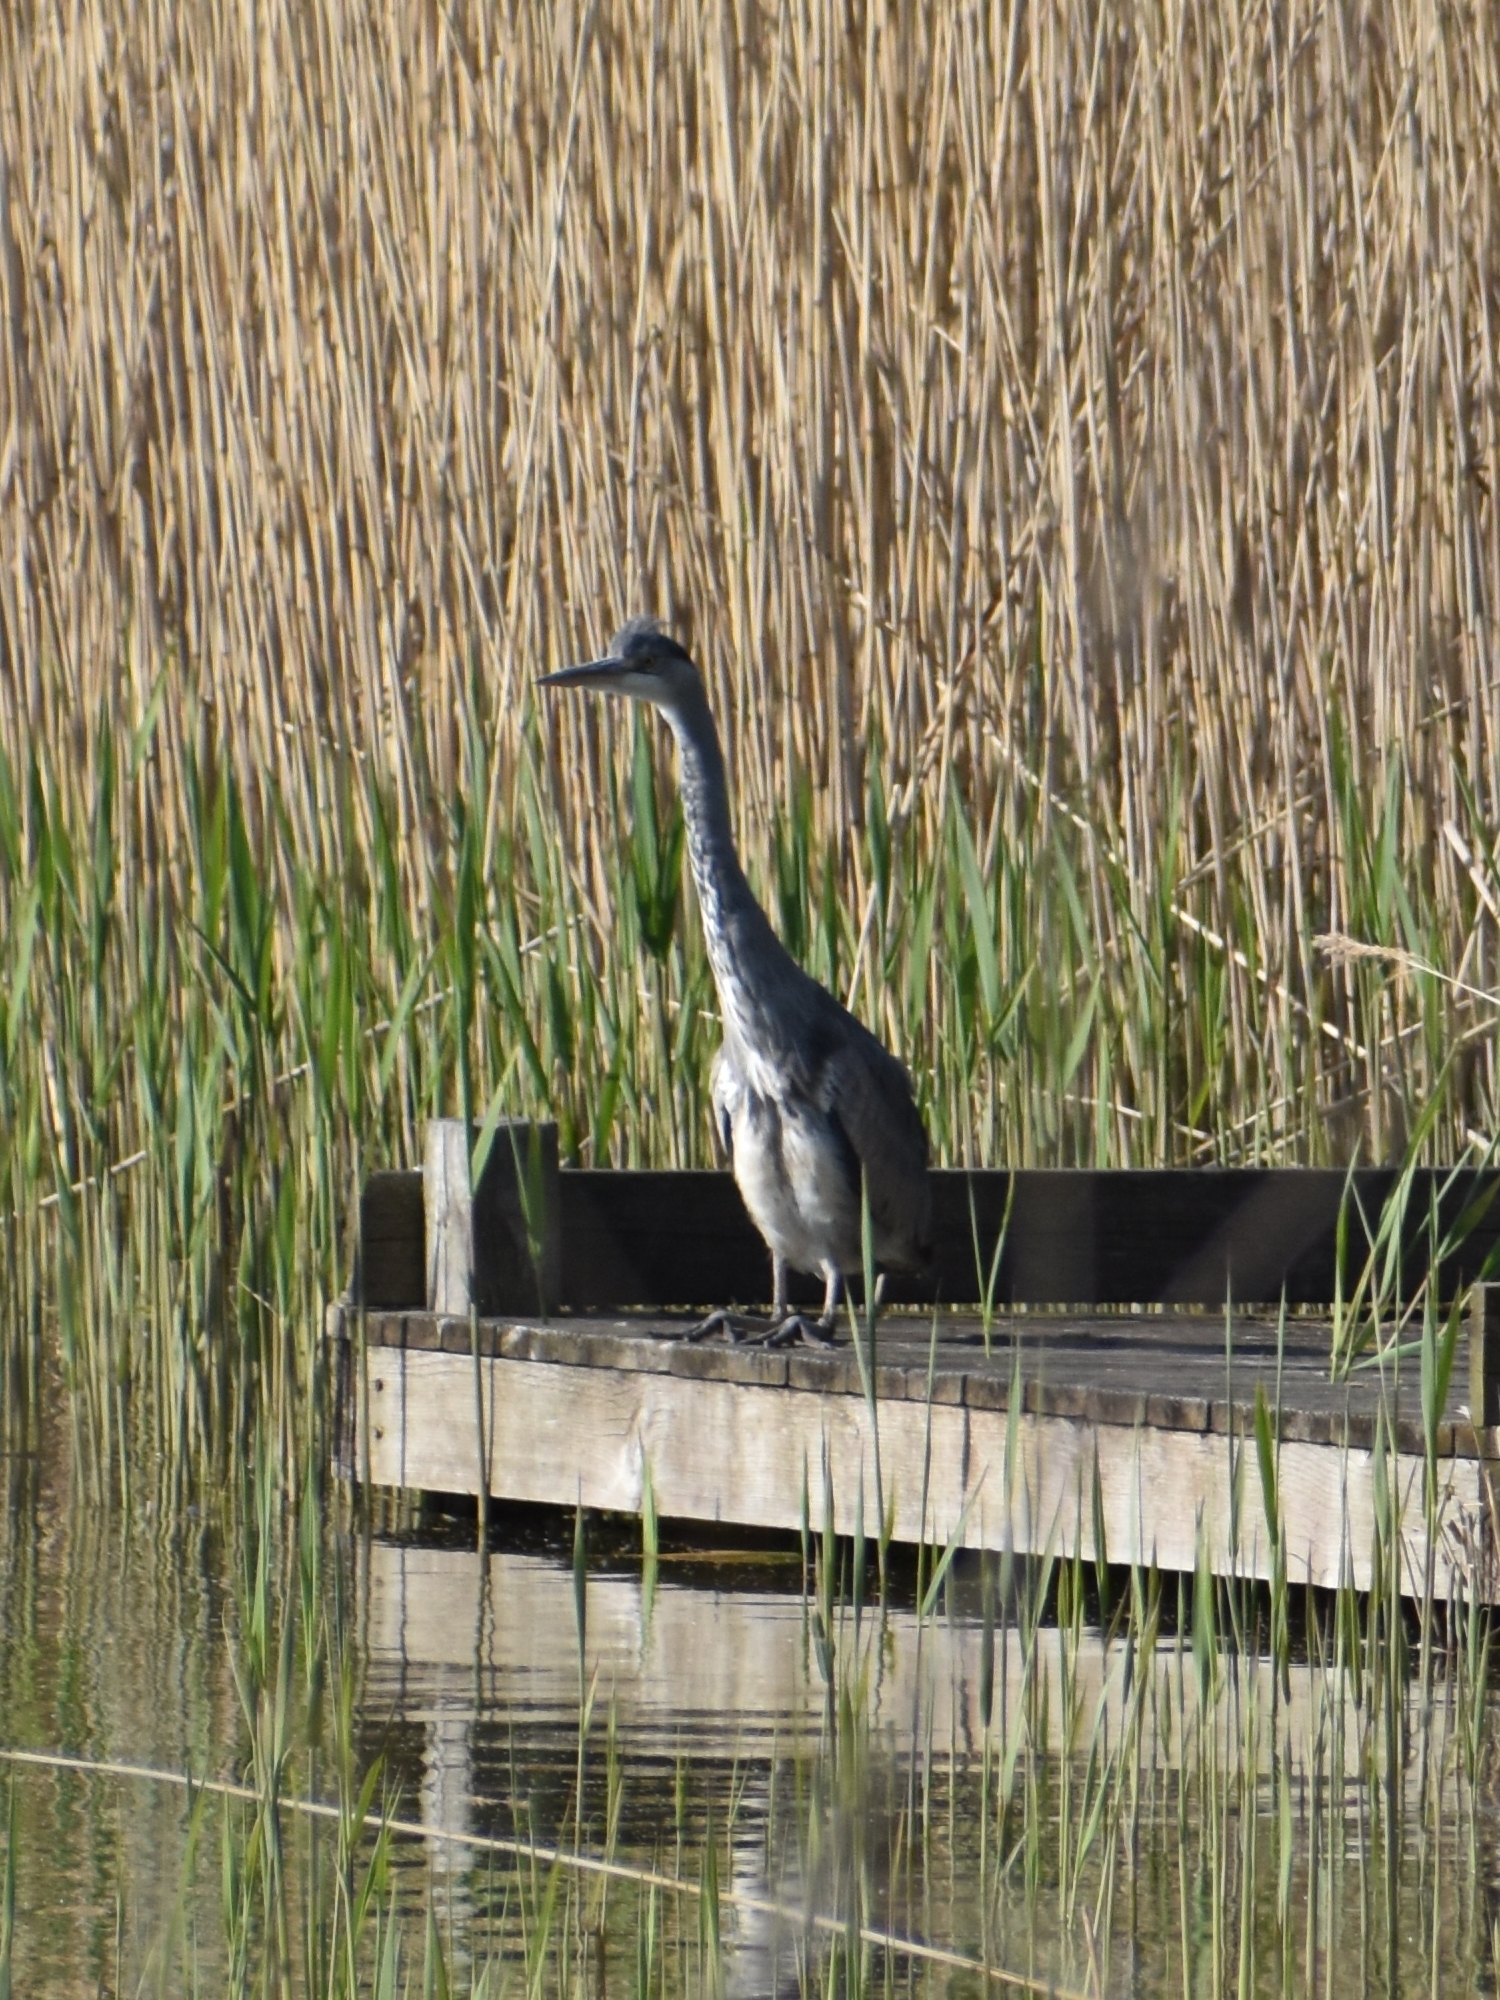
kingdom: Animalia
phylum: Chordata
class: Aves
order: Pelecaniformes
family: Ardeidae
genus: Ardea
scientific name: Ardea cinerea
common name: Grey heron
